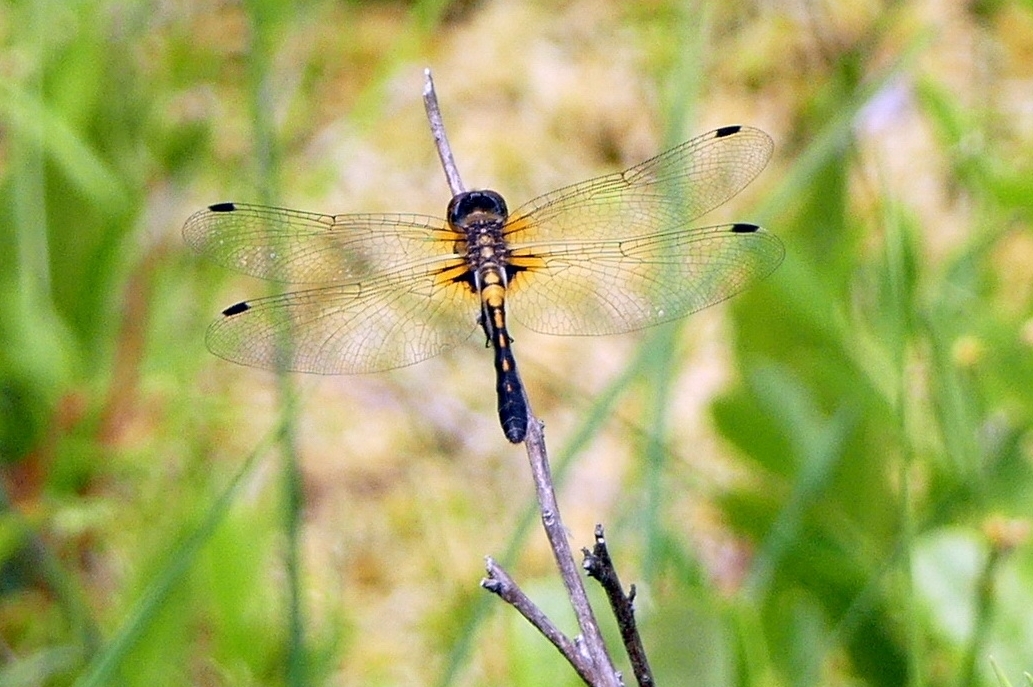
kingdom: Animalia
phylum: Arthropoda
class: Insecta
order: Odonata
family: Libellulidae
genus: Leucorrhinia
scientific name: Leucorrhinia frigida
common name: Frosted whiteface
